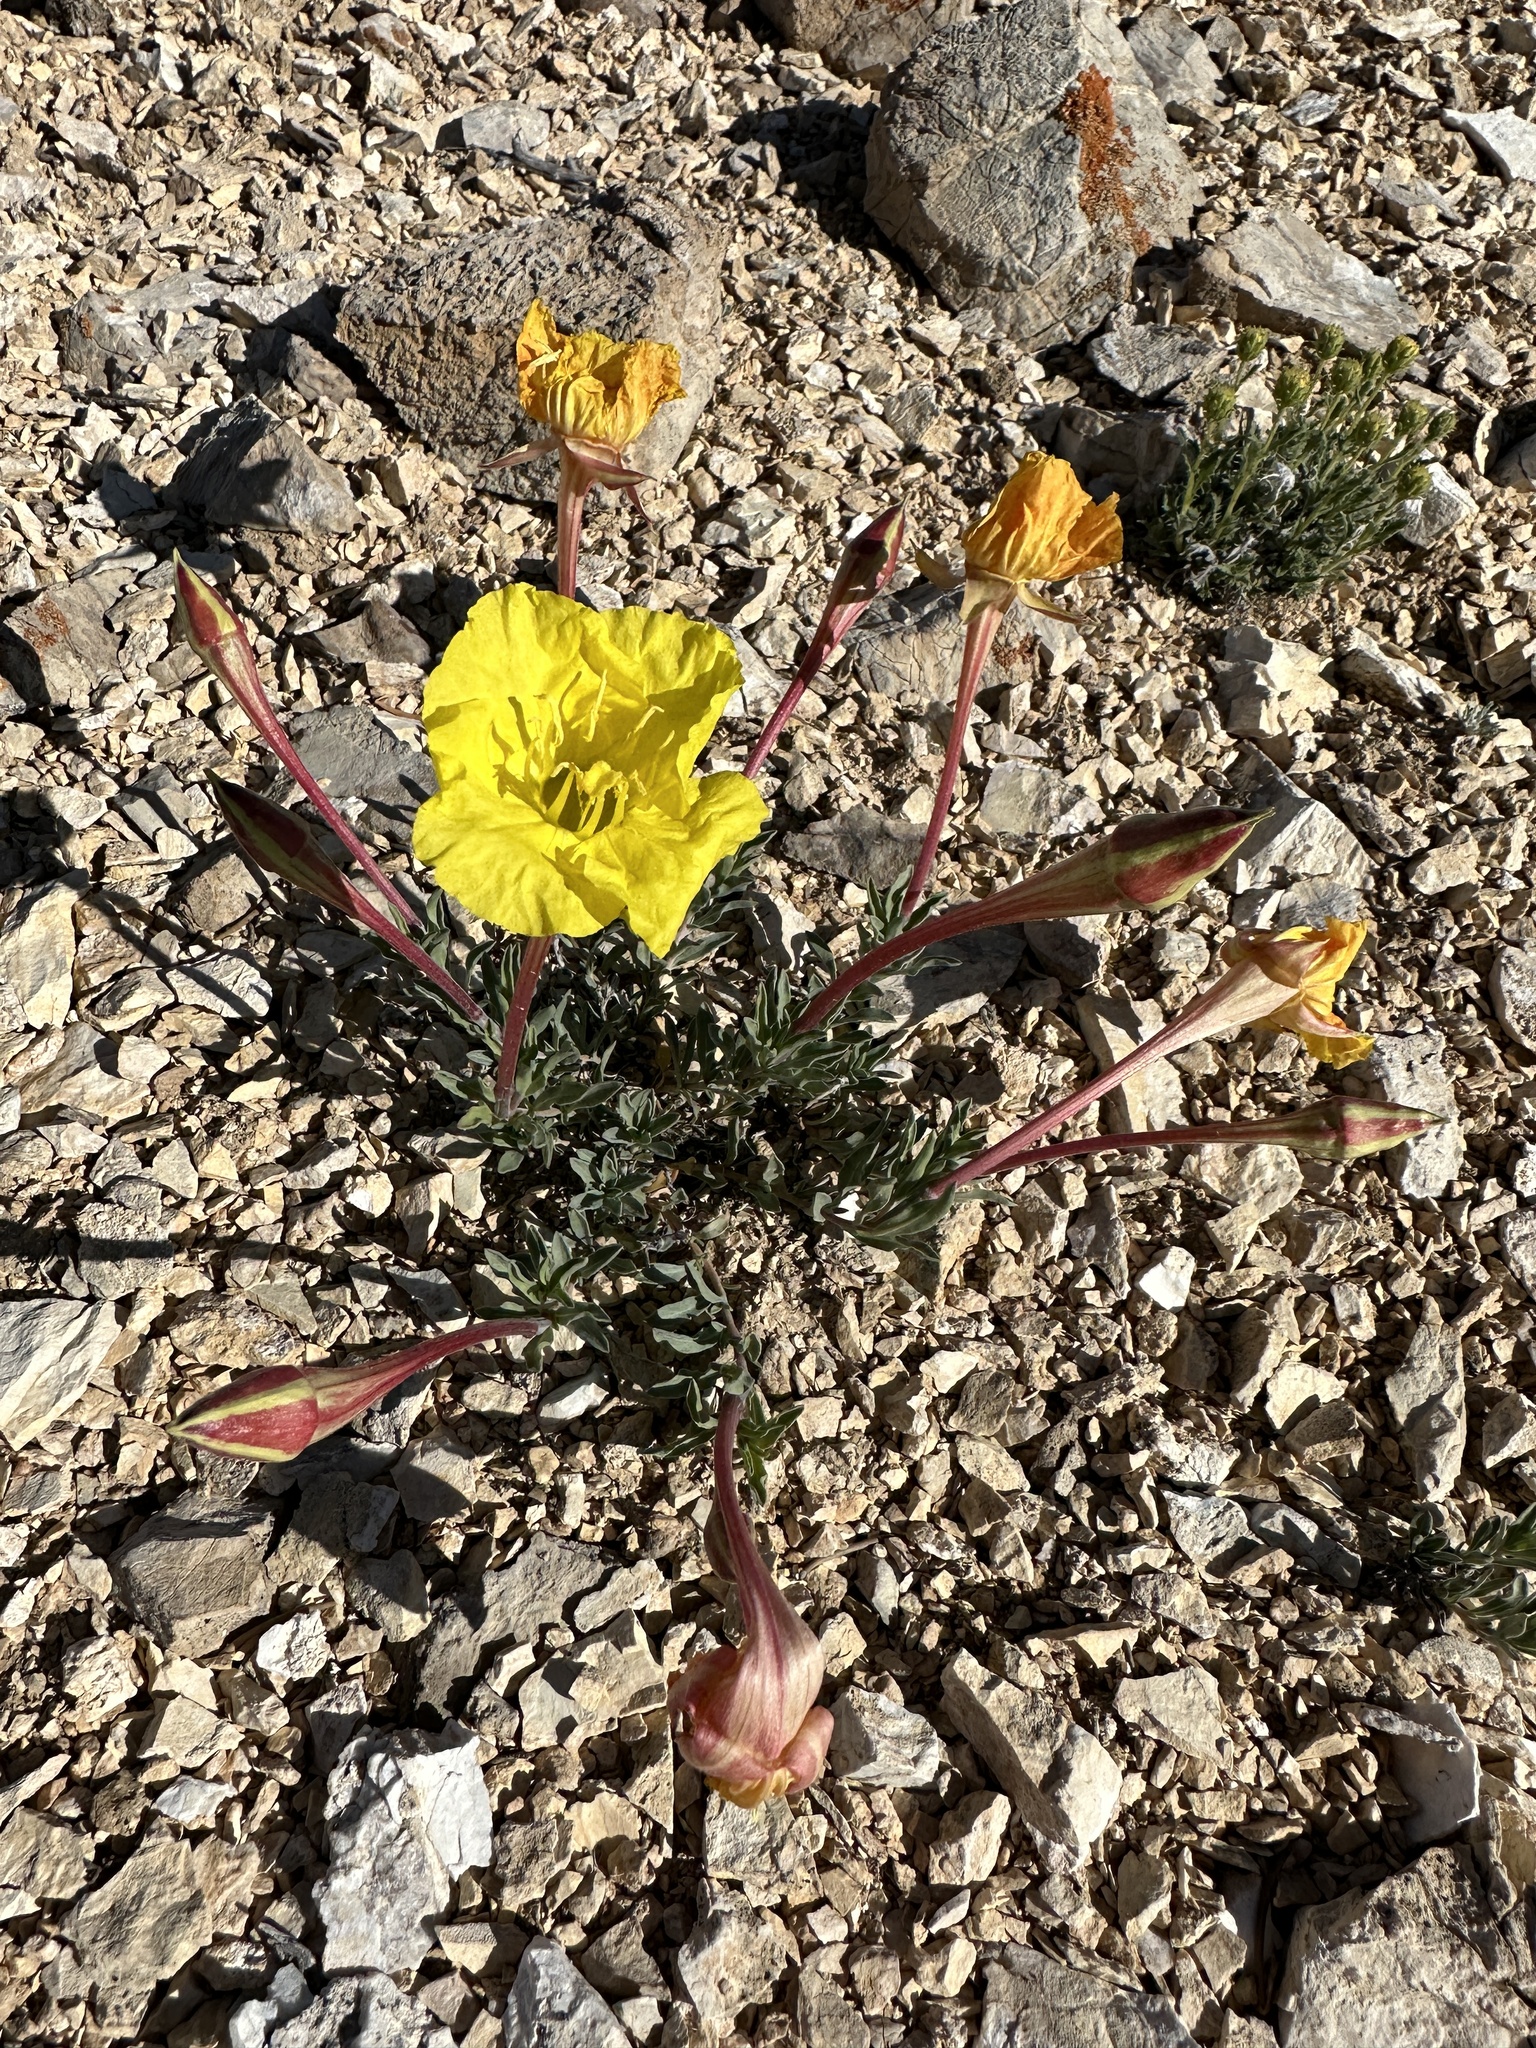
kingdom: Plantae
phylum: Tracheophyta
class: Magnoliopsida
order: Myrtales
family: Onagraceae
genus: Oenothera
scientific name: Oenothera lavandulifolia
